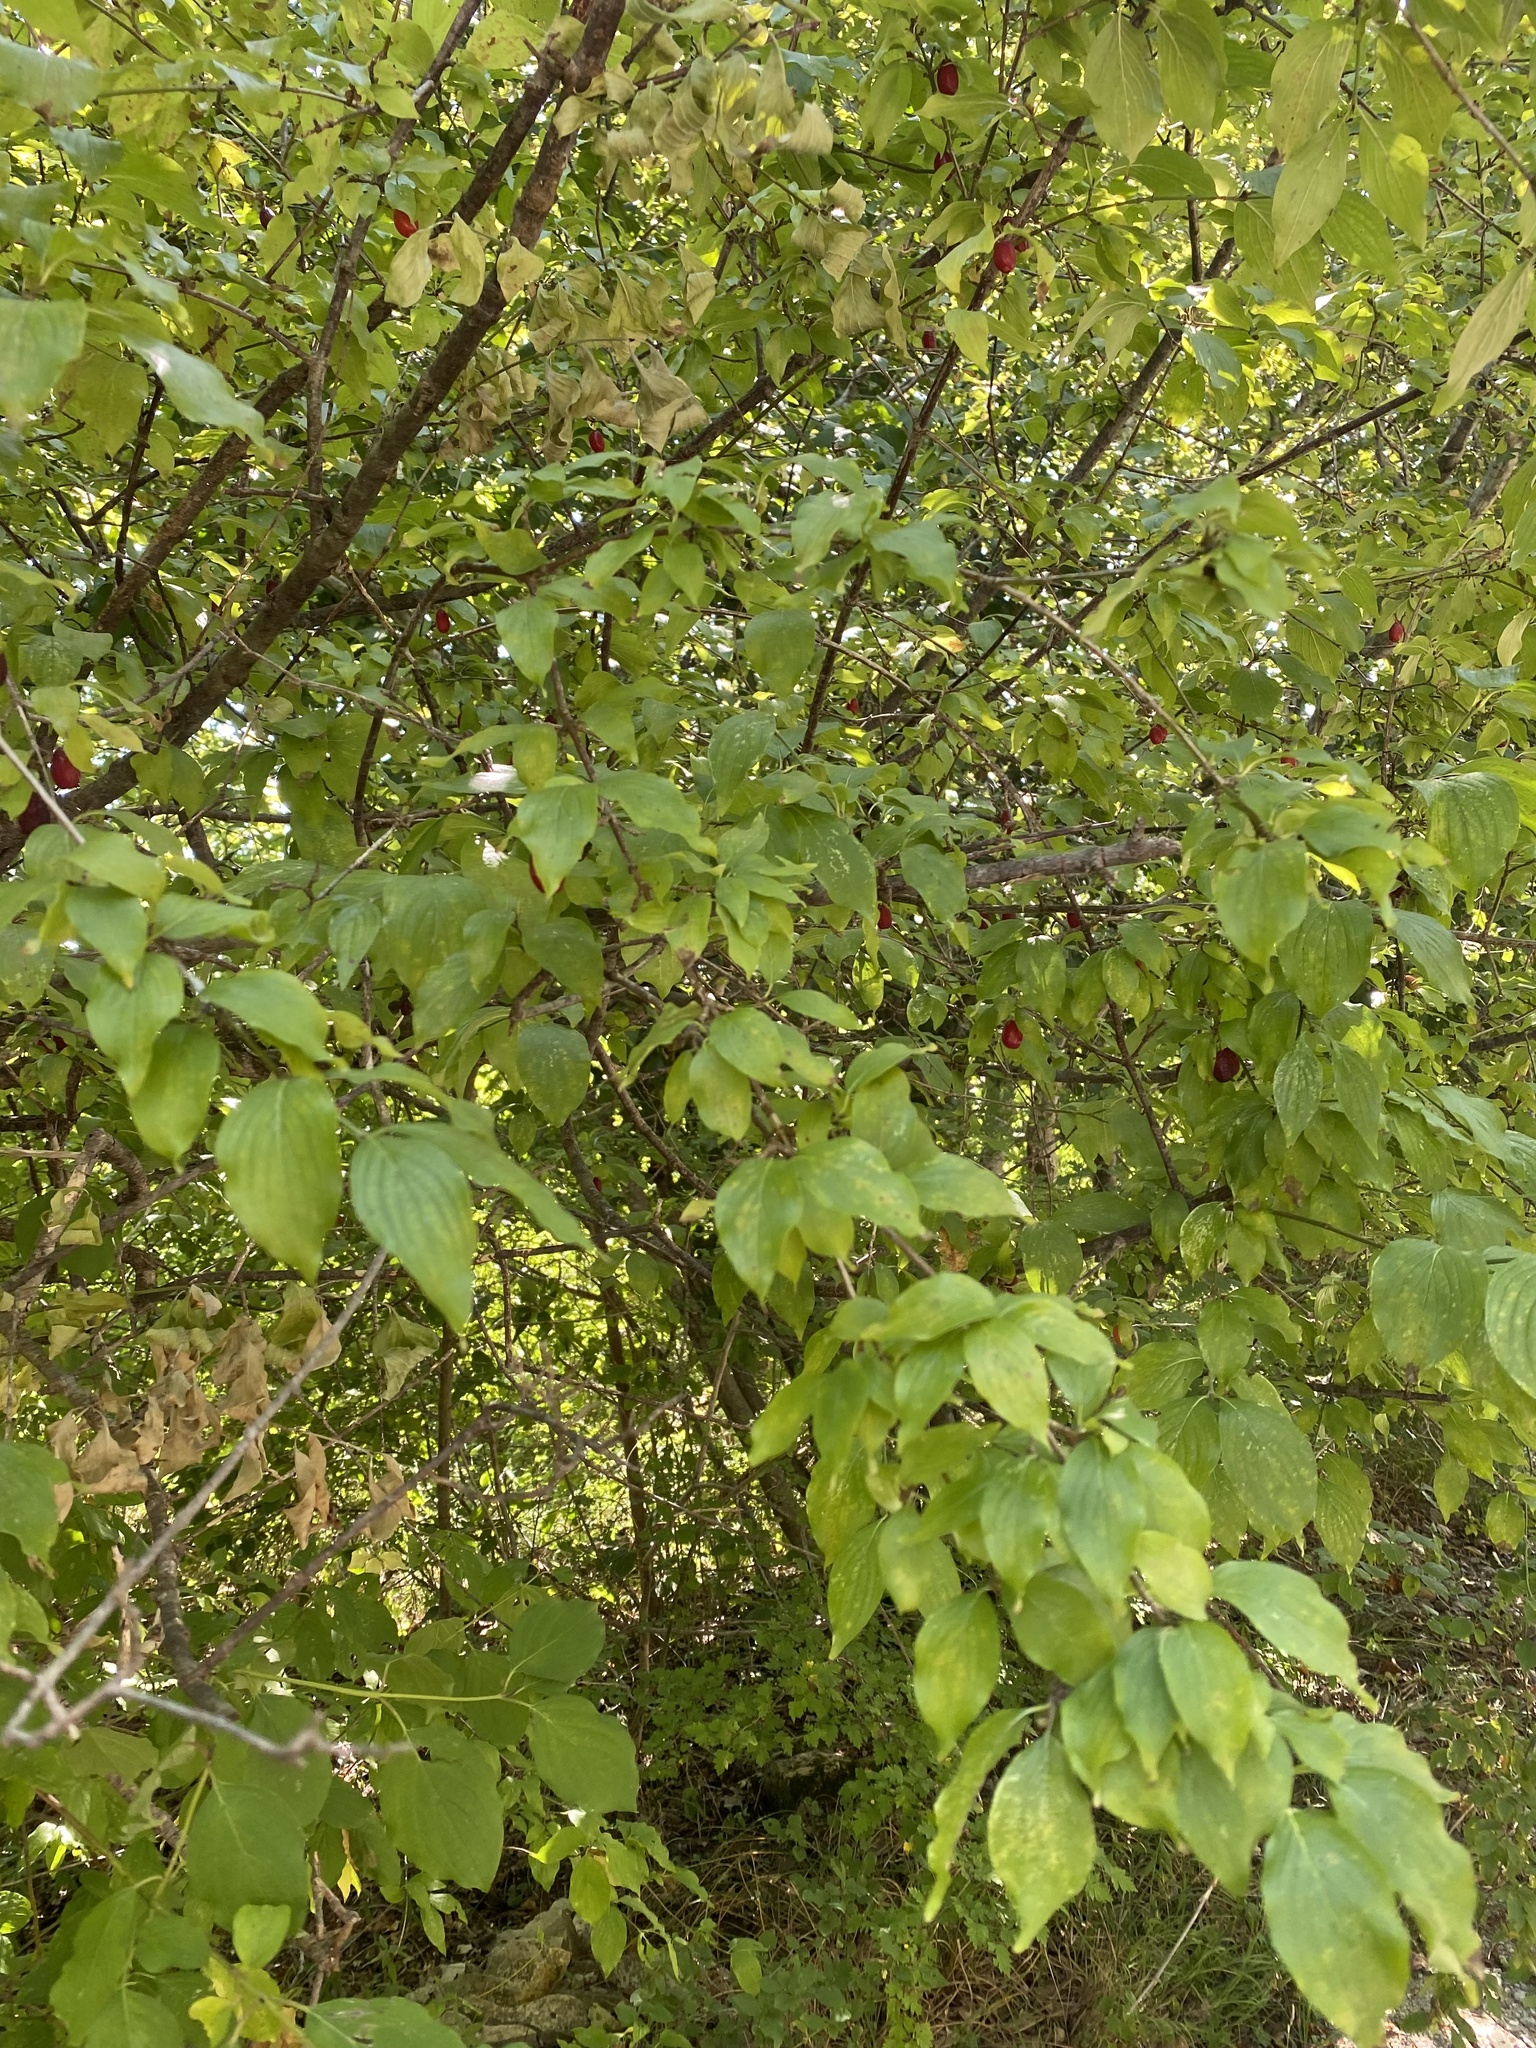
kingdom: Plantae
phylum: Tracheophyta
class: Magnoliopsida
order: Cornales
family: Cornaceae
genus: Cornus
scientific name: Cornus mas
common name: Cornelian-cherry
